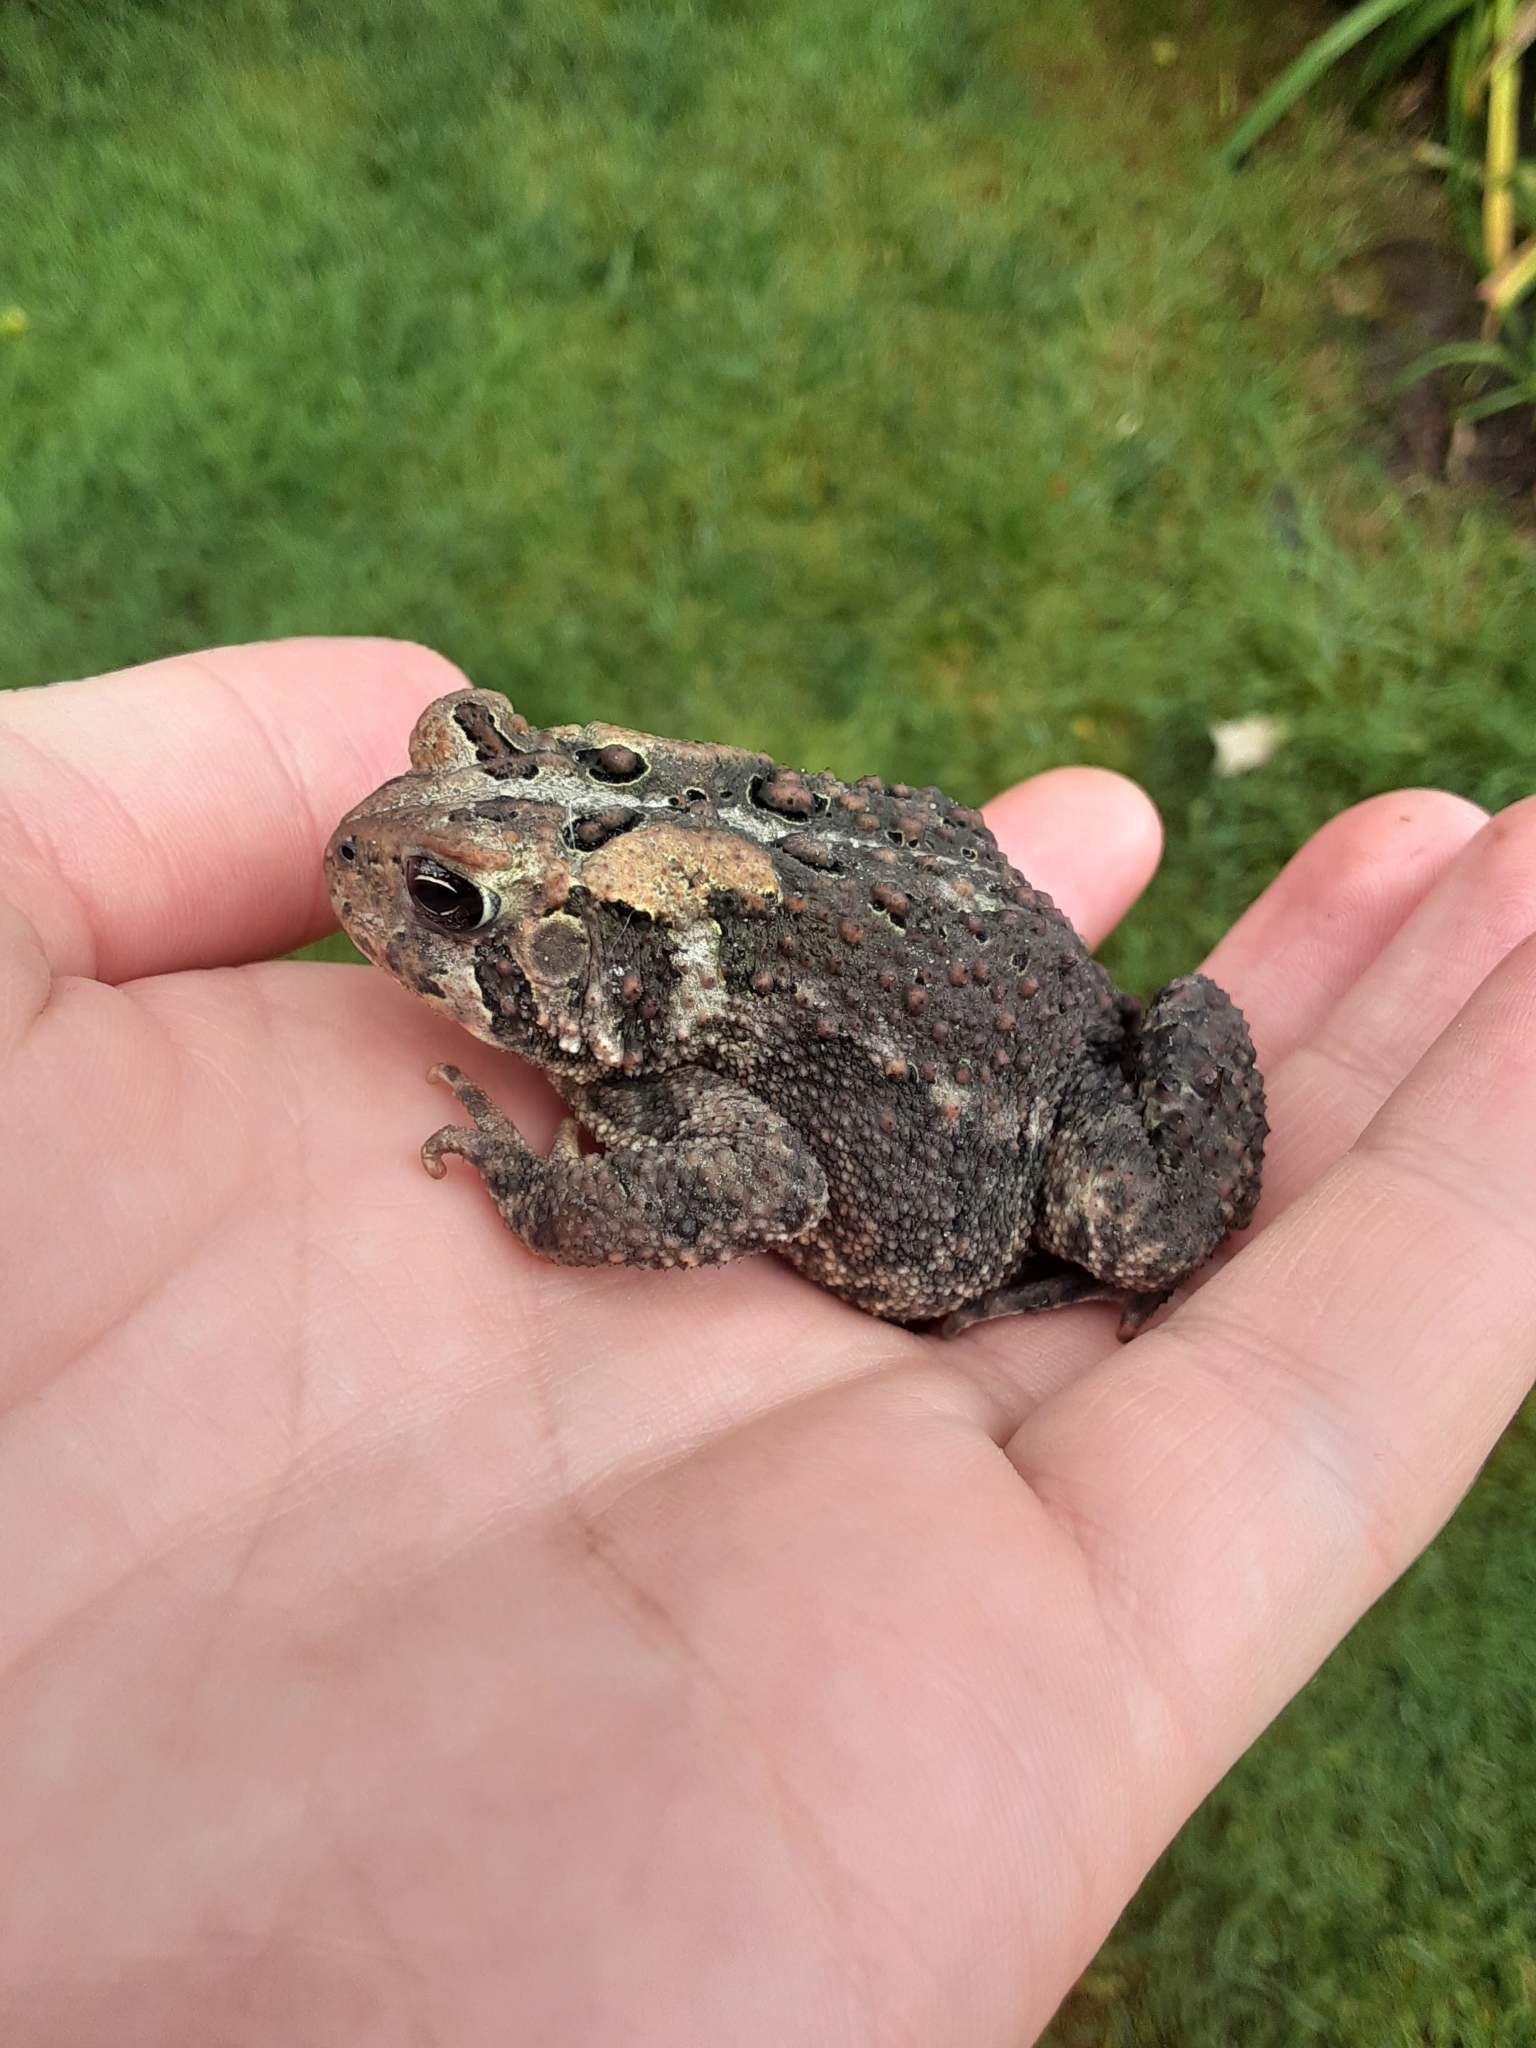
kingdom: Animalia
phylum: Chordata
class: Amphibia
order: Anura
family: Bufonidae
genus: Anaxyrus
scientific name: Anaxyrus americanus
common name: American toad
